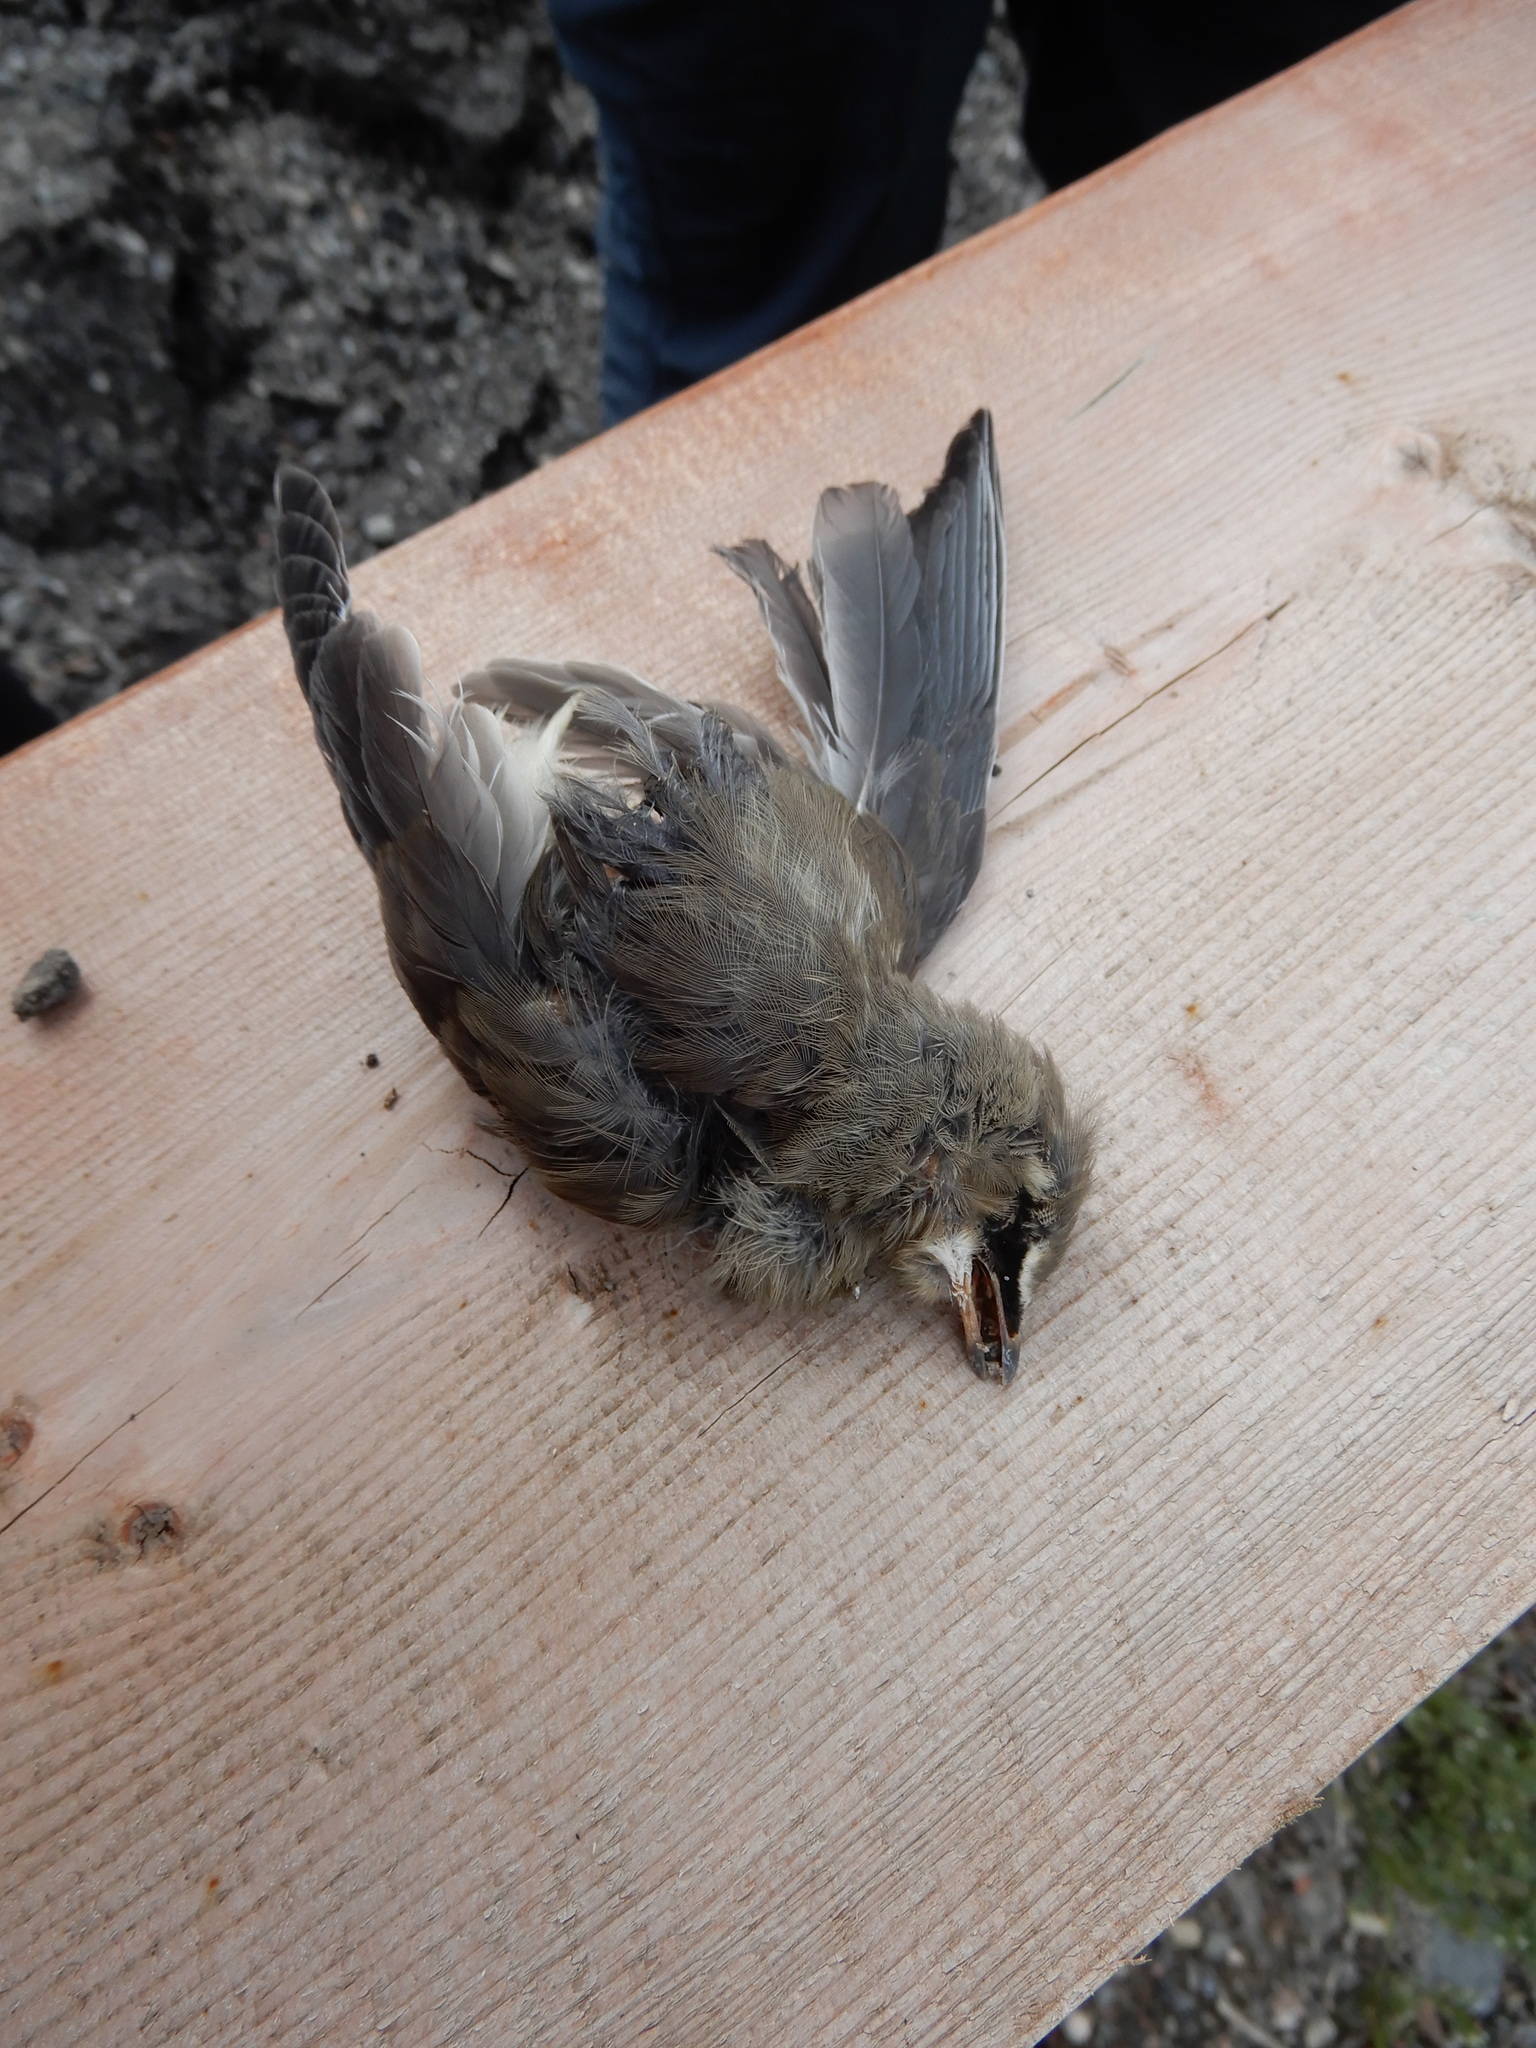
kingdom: Animalia
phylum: Chordata
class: Aves
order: Passeriformes
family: Bombycillidae
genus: Bombycilla
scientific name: Bombycilla cedrorum
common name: Cedar waxwing
